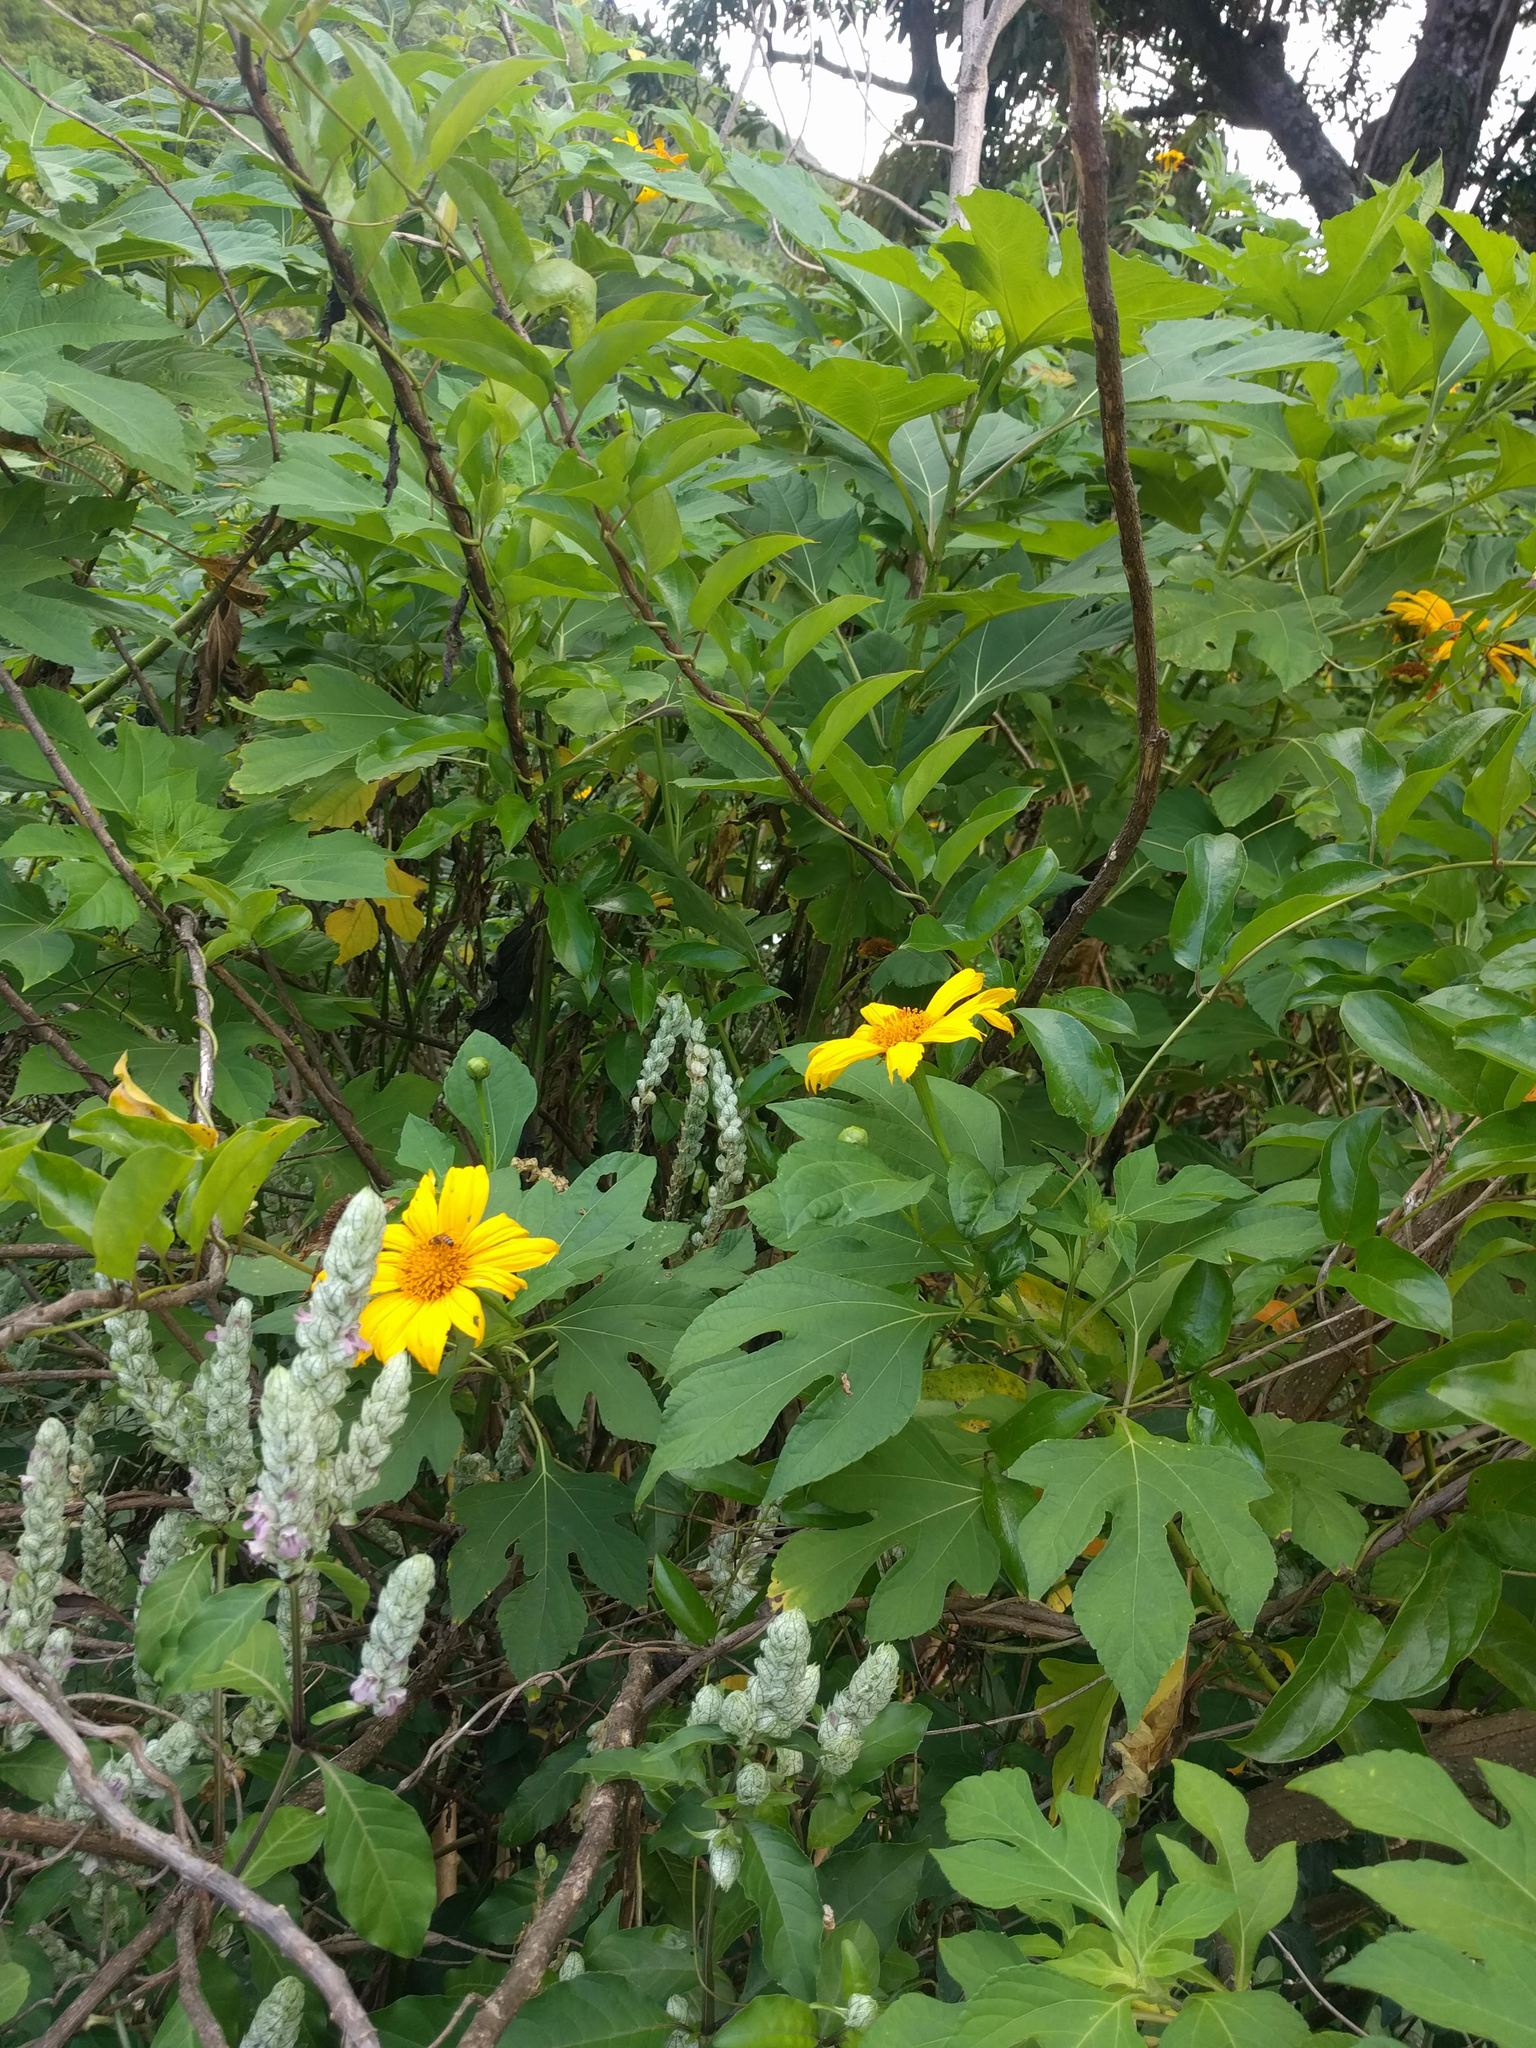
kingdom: Plantae
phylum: Tracheophyta
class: Magnoliopsida
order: Asterales
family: Asteraceae
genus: Tithonia
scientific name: Tithonia diversifolia
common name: Tree marigold
